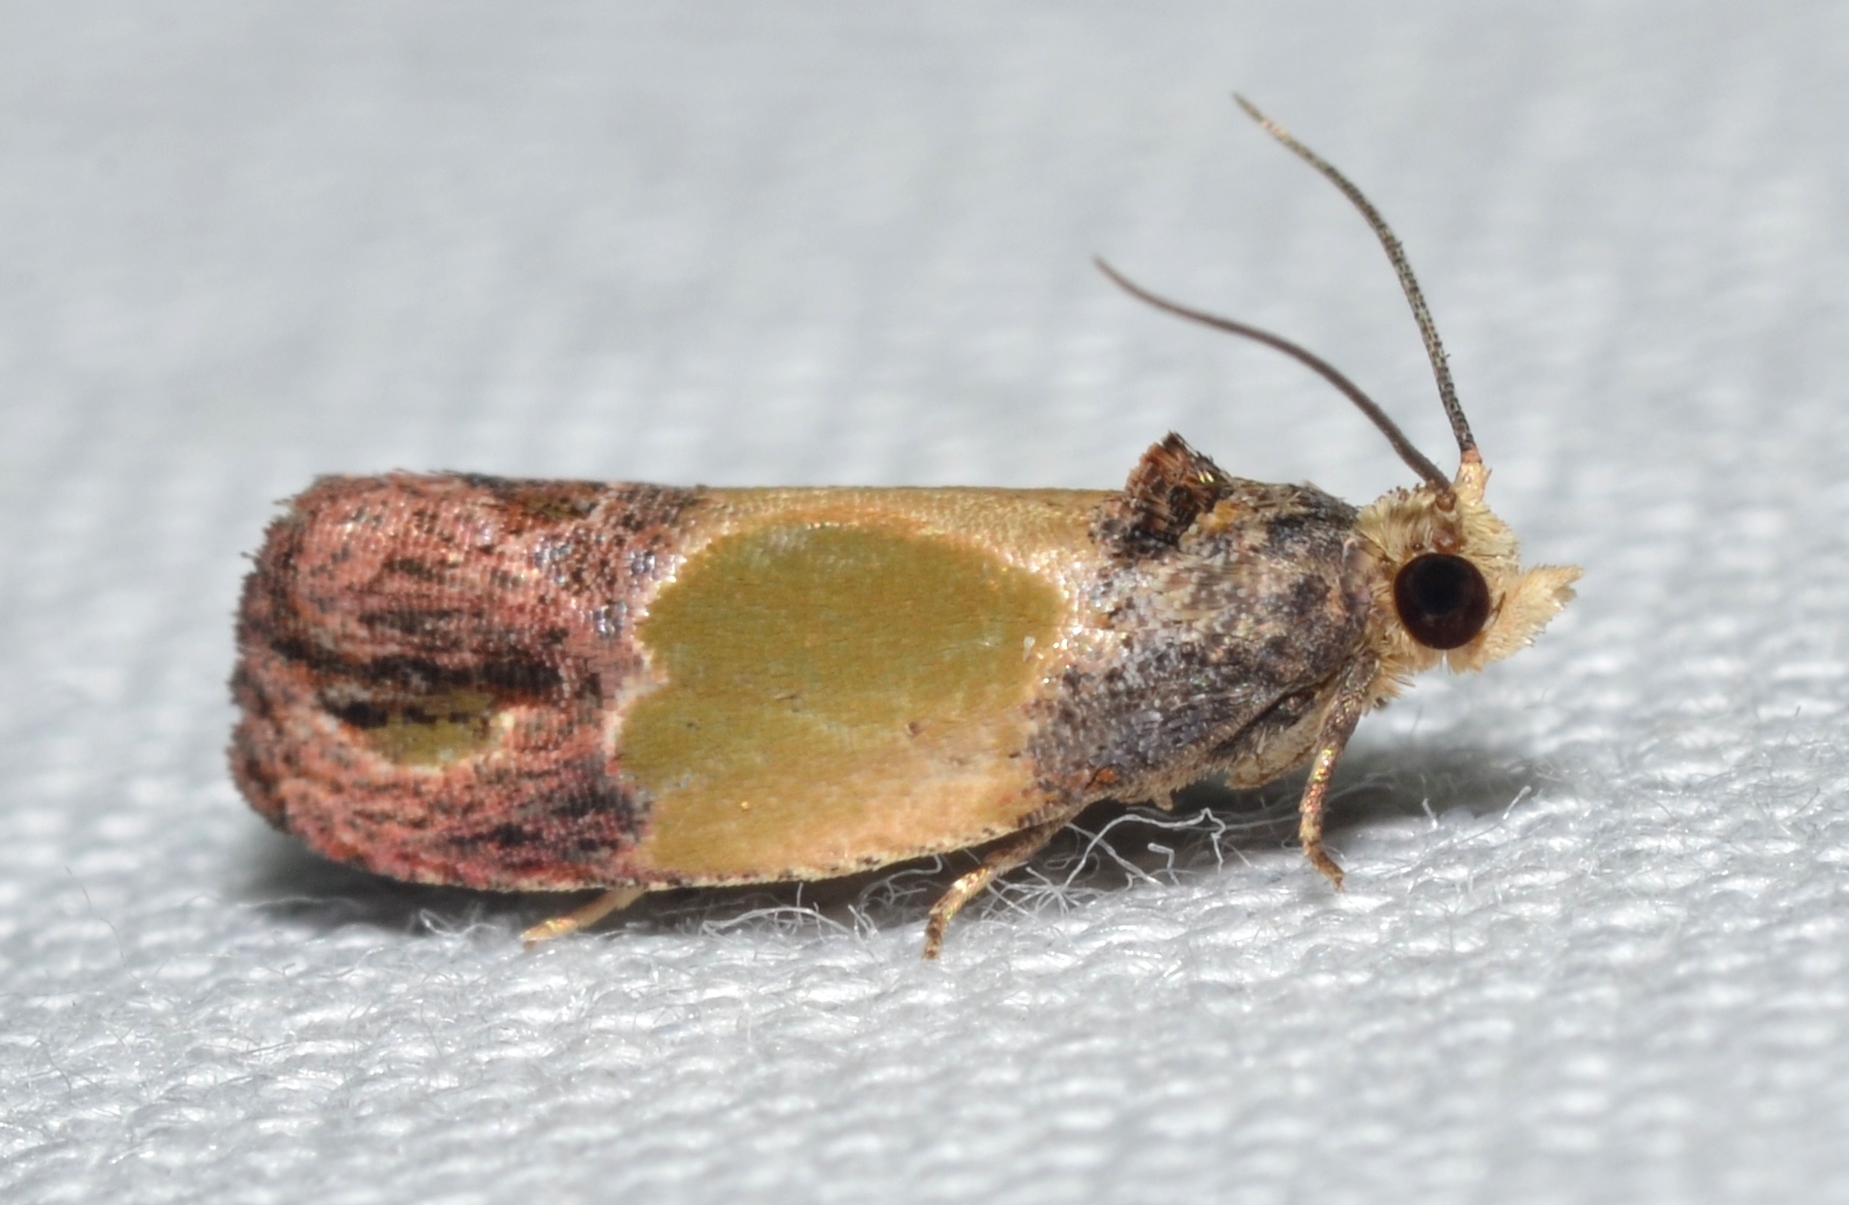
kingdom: Animalia
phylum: Arthropoda
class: Insecta
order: Lepidoptera
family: Tortricidae
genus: Eumarozia
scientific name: Eumarozia malachitana
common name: Sculptured moth
